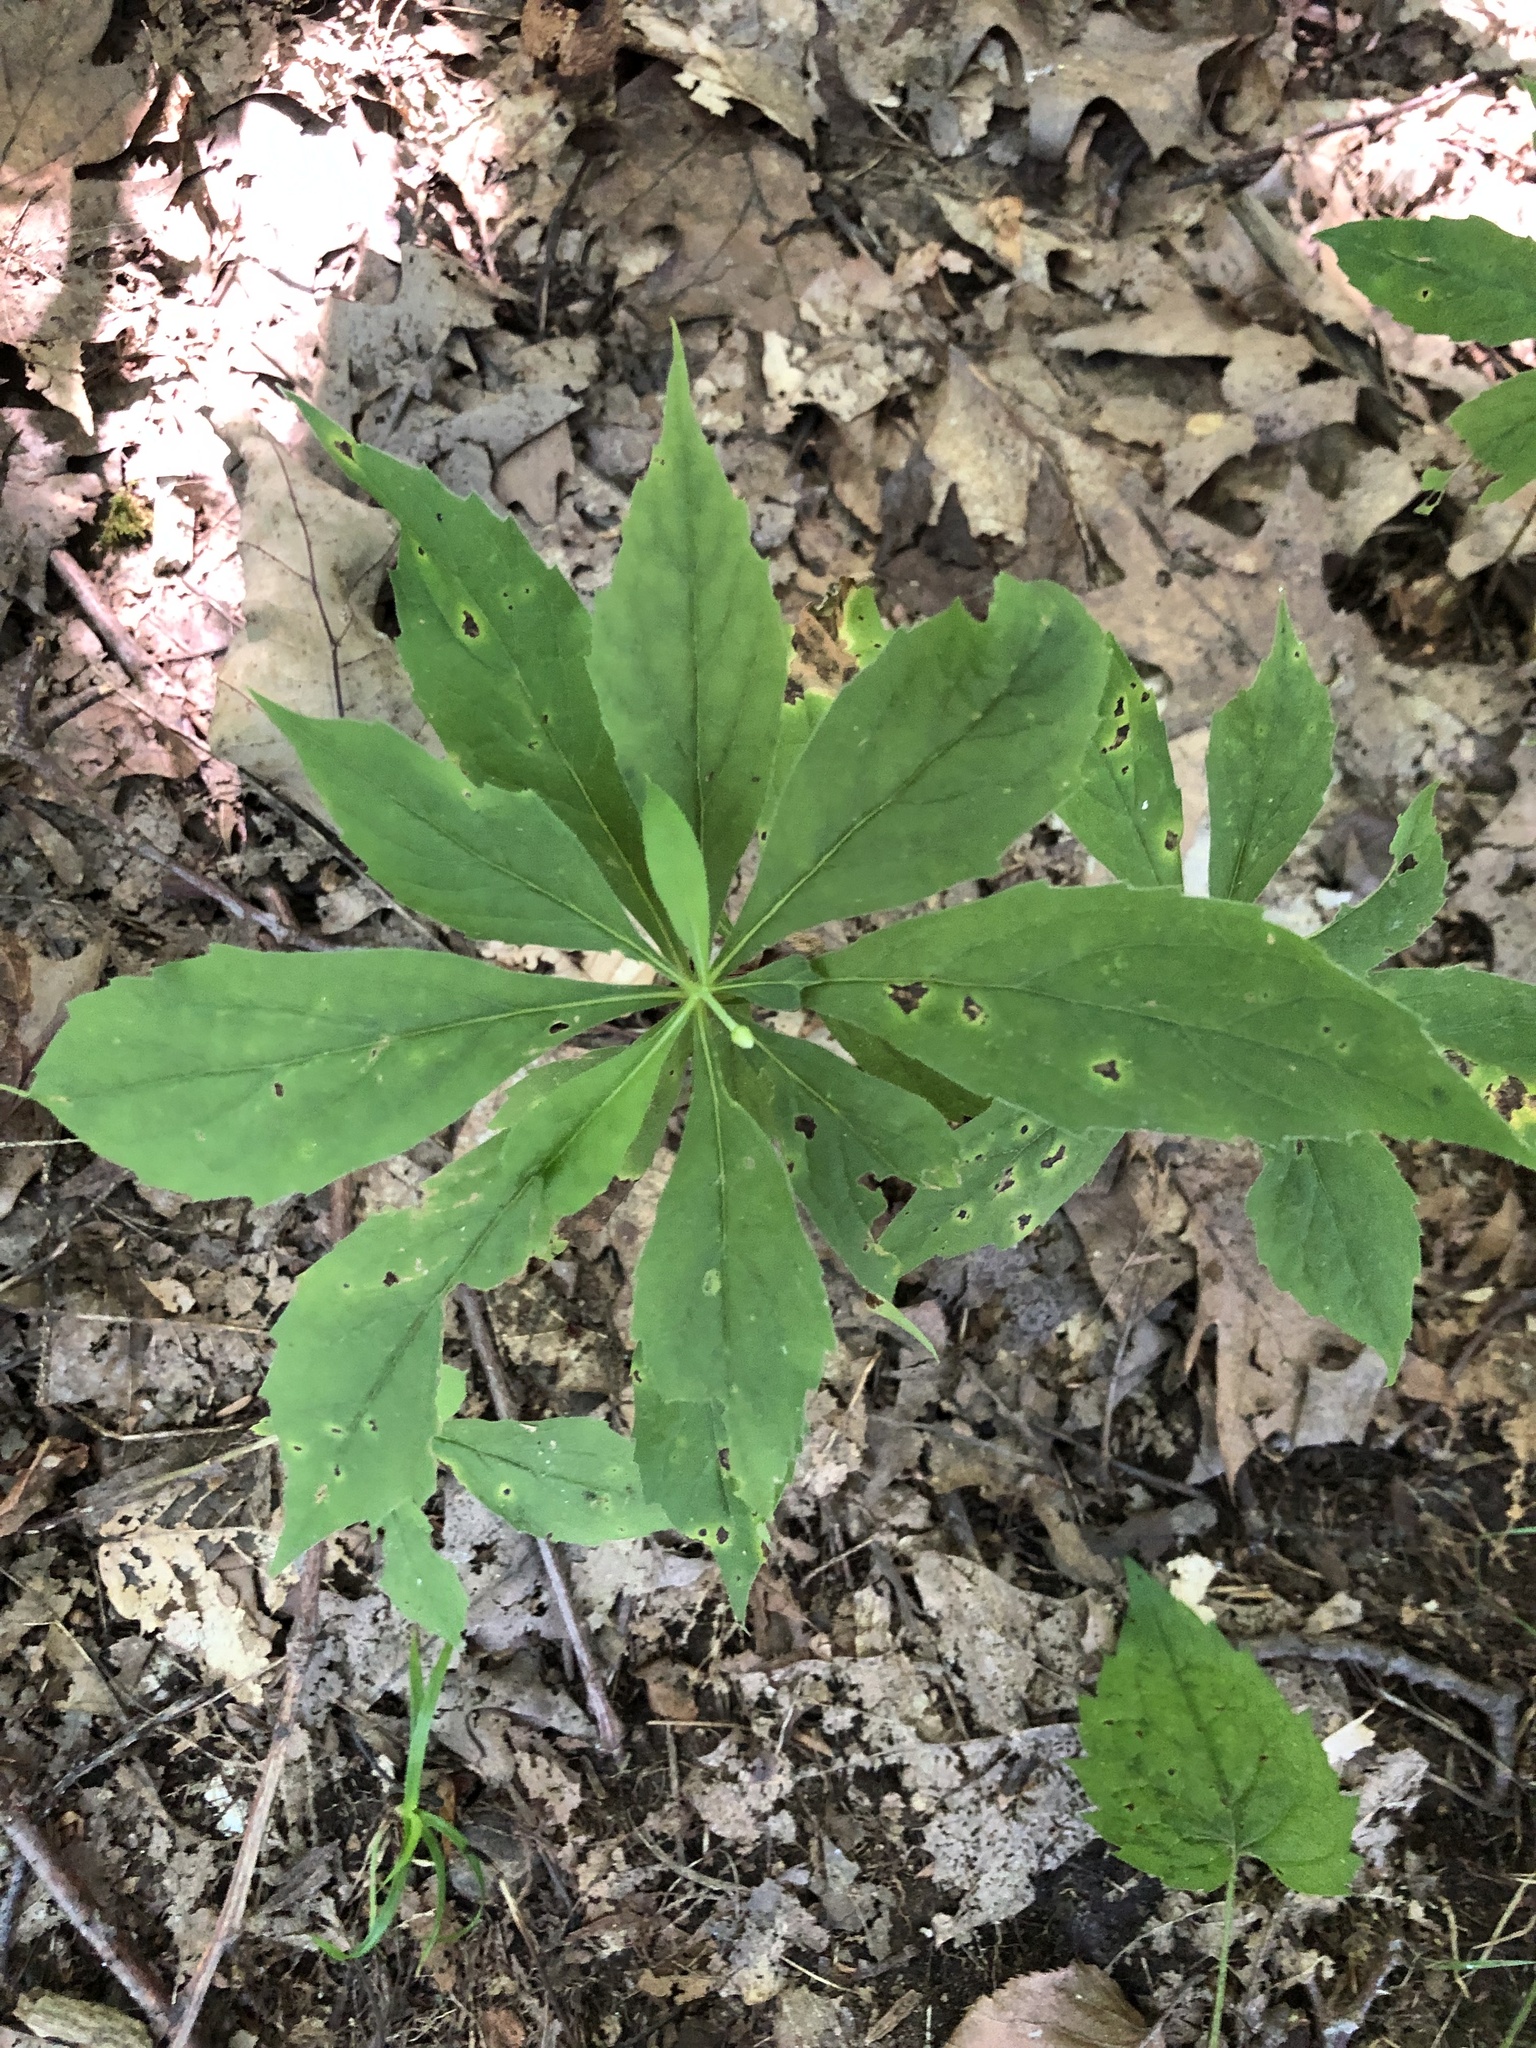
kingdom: Plantae
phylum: Tracheophyta
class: Magnoliopsida
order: Asterales
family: Asteraceae
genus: Oclemena
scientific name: Oclemena acuminata
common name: Mountain aster
